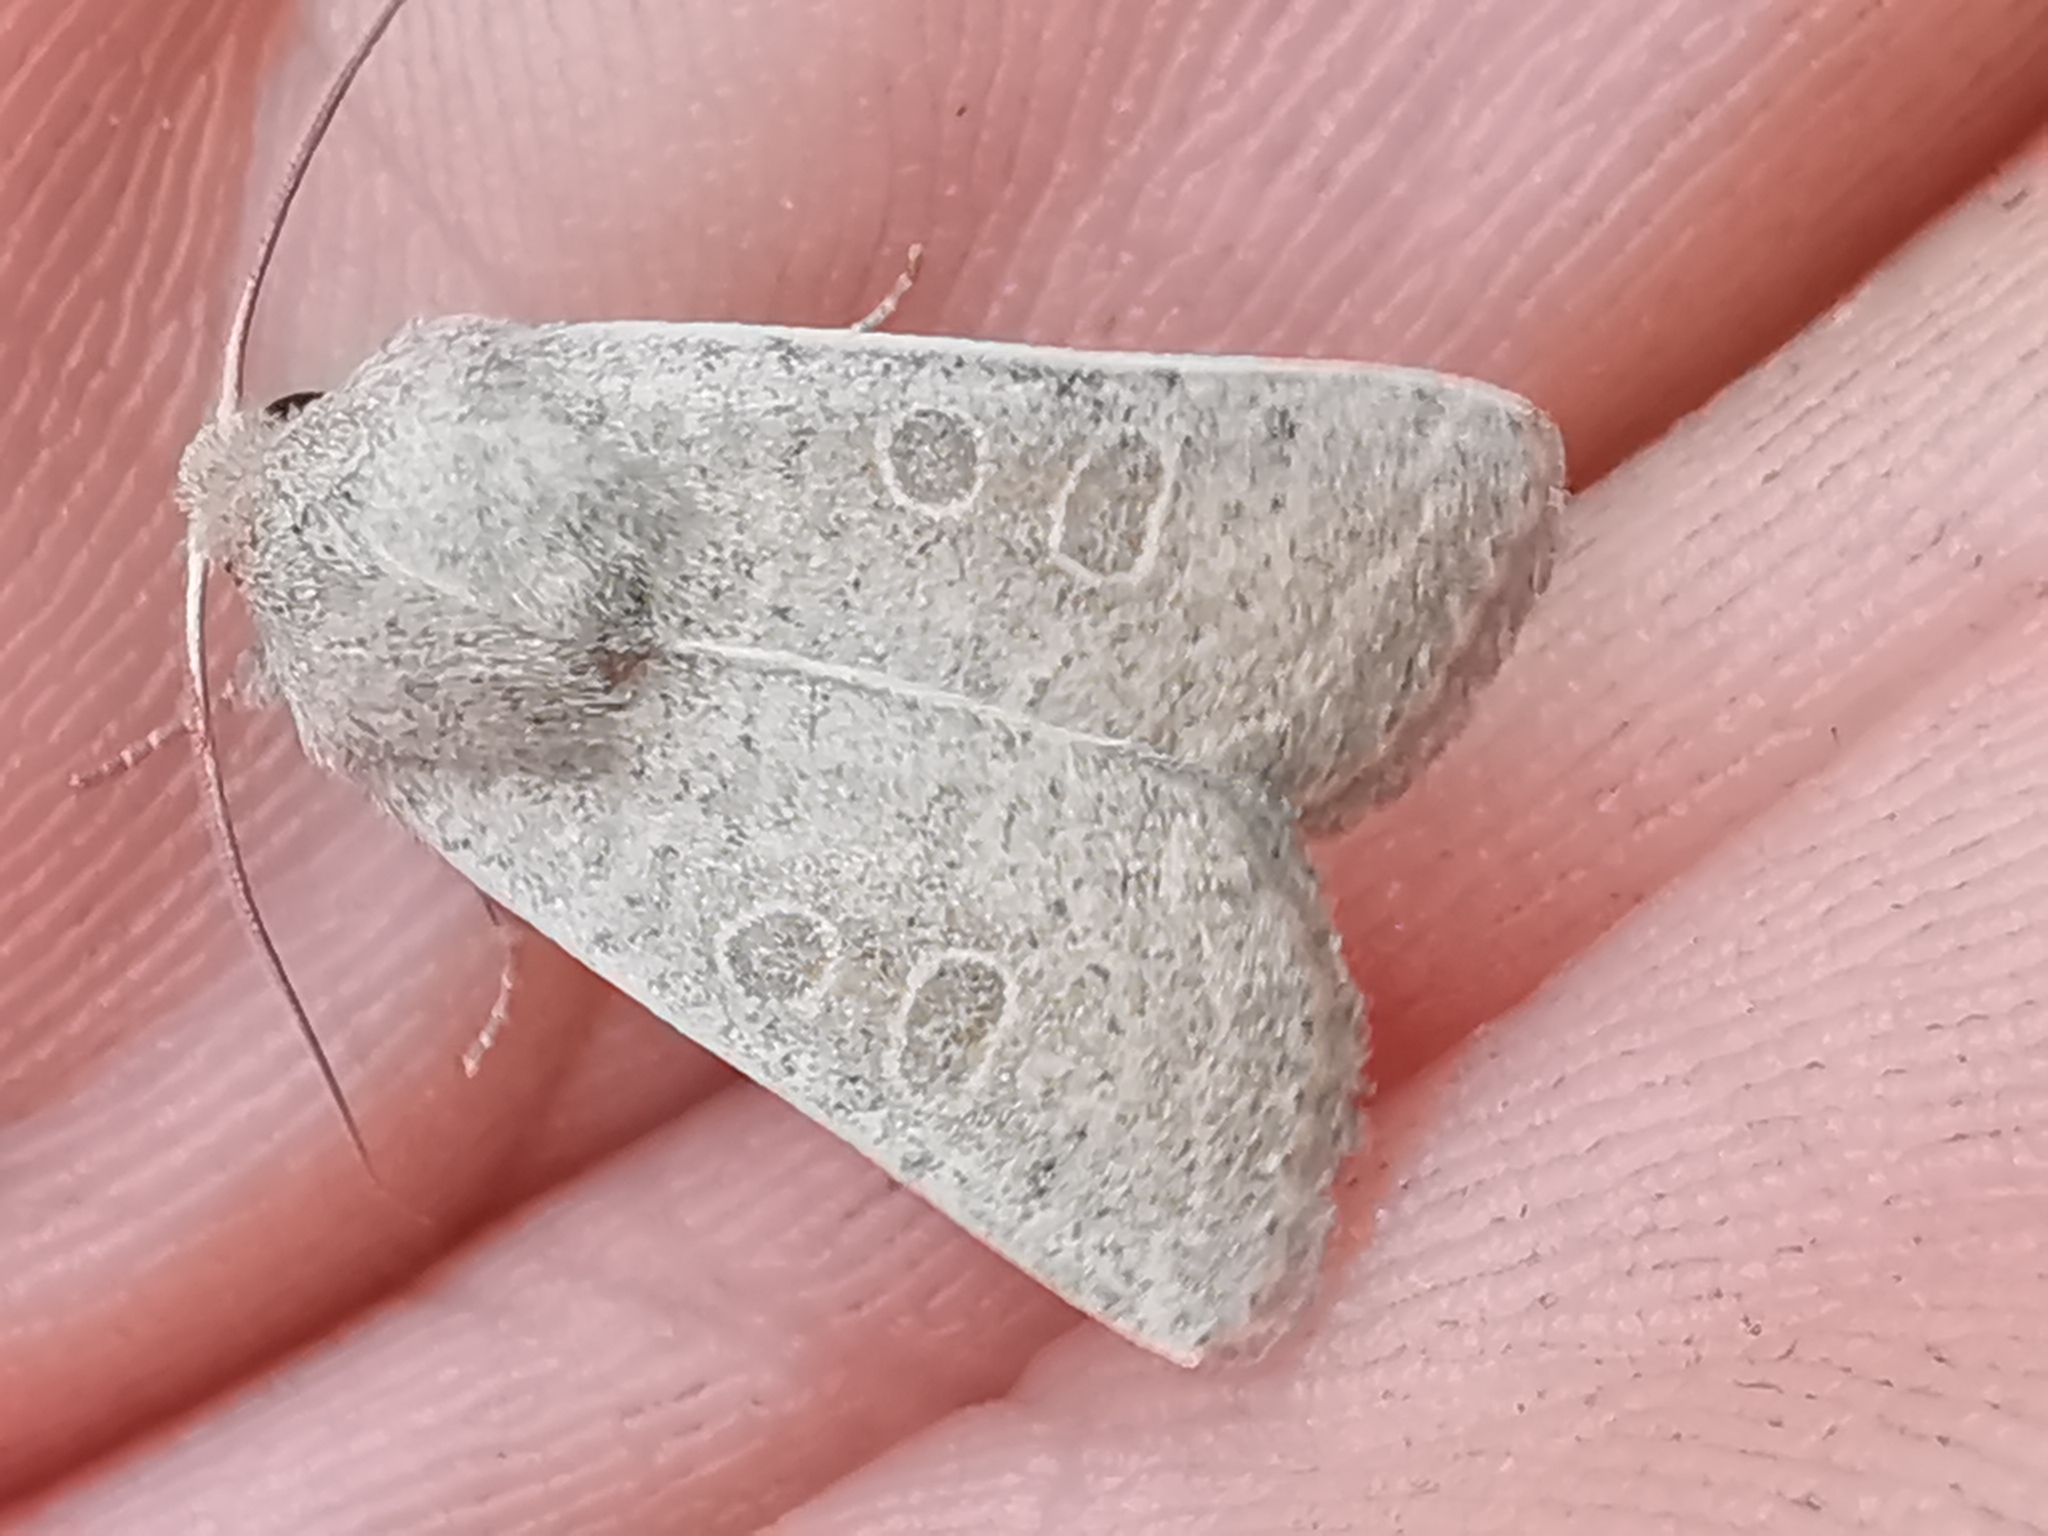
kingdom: Animalia
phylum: Arthropoda
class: Insecta
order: Lepidoptera
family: Noctuidae
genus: Hoplodrina
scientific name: Hoplodrina ambigua
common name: Vine's rustic
